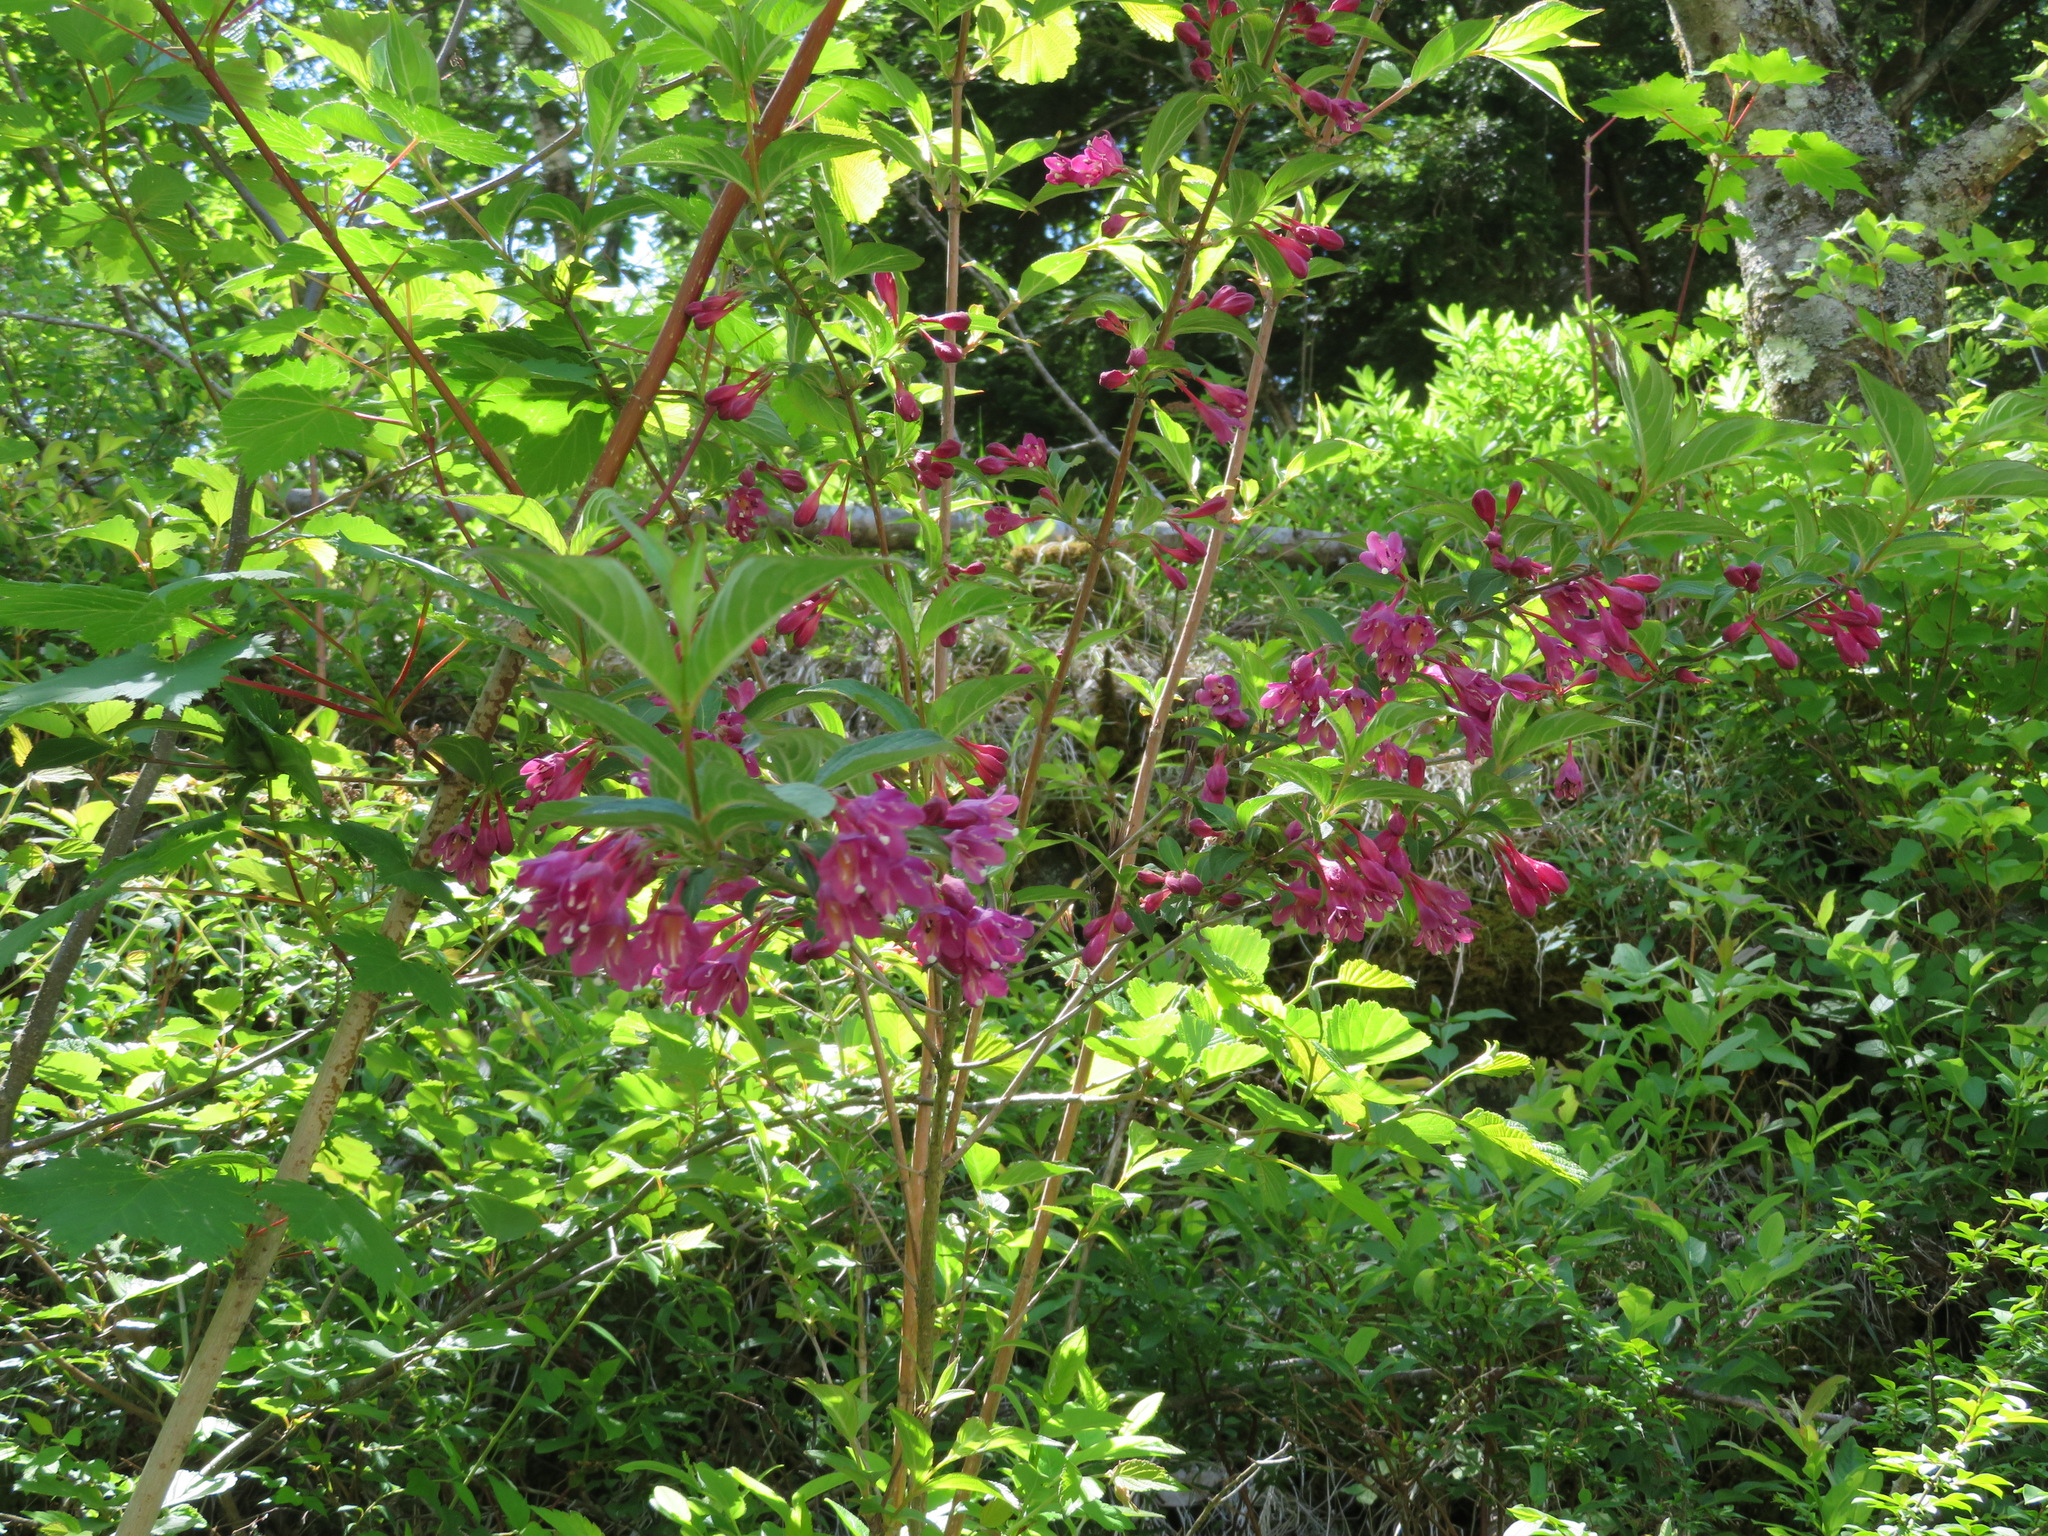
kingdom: Plantae
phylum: Tracheophyta
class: Magnoliopsida
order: Dipsacales
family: Caprifoliaceae
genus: Weigela
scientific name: Weigela floribunda
